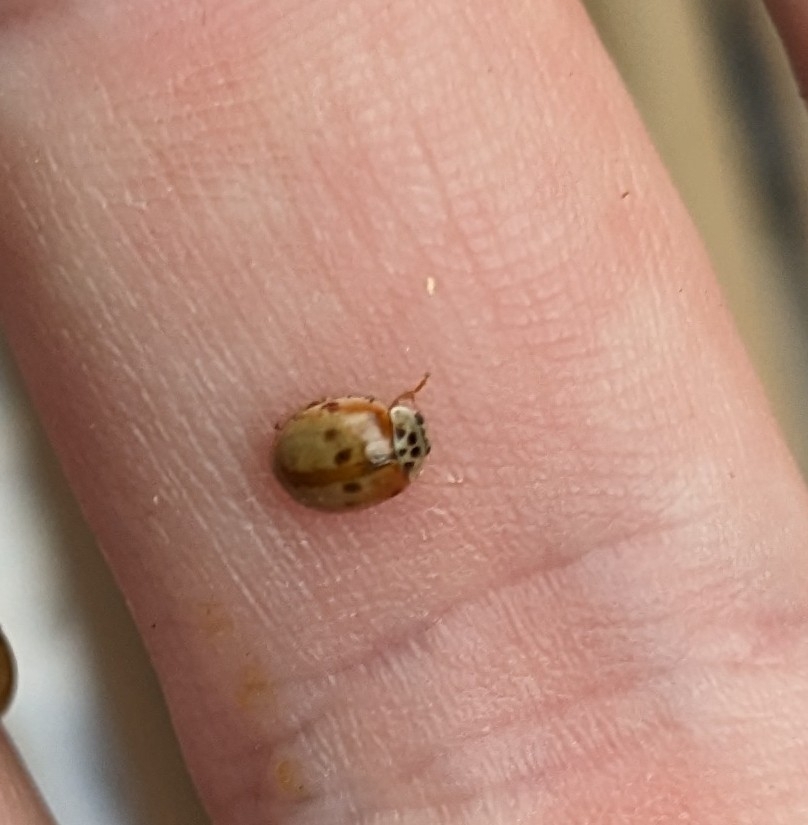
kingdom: Animalia
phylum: Arthropoda
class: Insecta
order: Coleoptera
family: Coccinellidae
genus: Adalia
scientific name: Adalia decempunctata
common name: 10-spot ladybird
